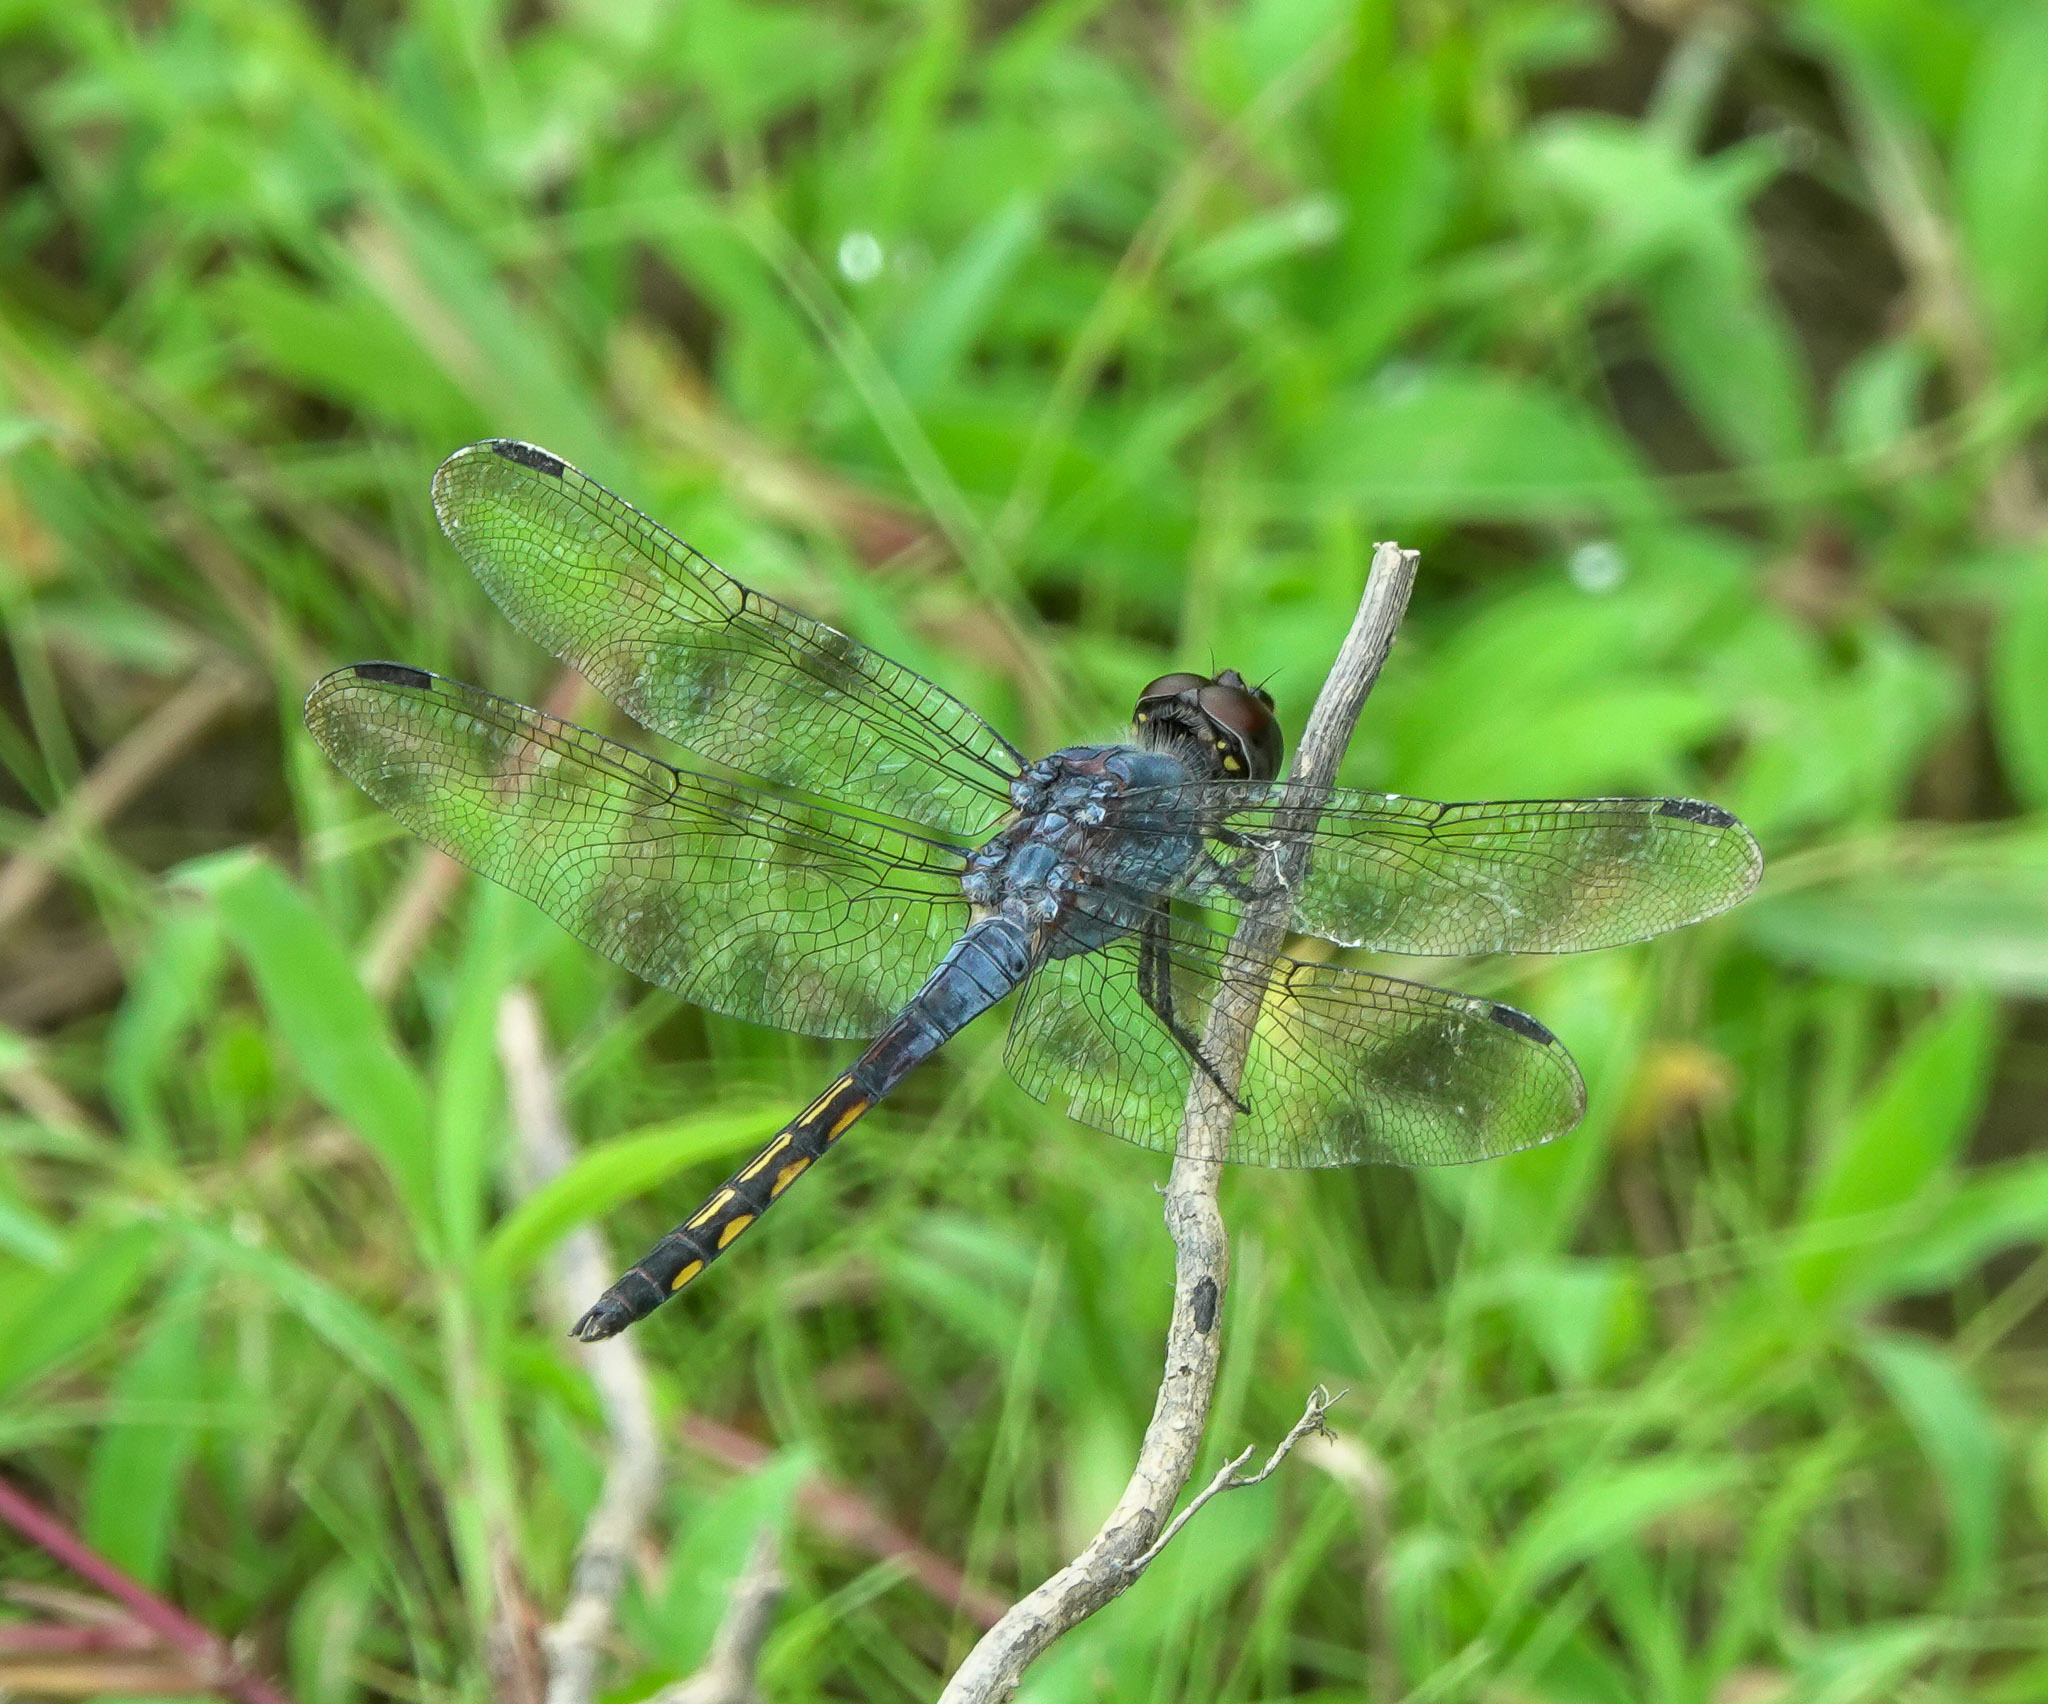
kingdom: Animalia
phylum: Arthropoda
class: Insecta
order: Odonata
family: Libellulidae
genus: Potamarcha
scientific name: Potamarcha congener
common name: Blue chaser
